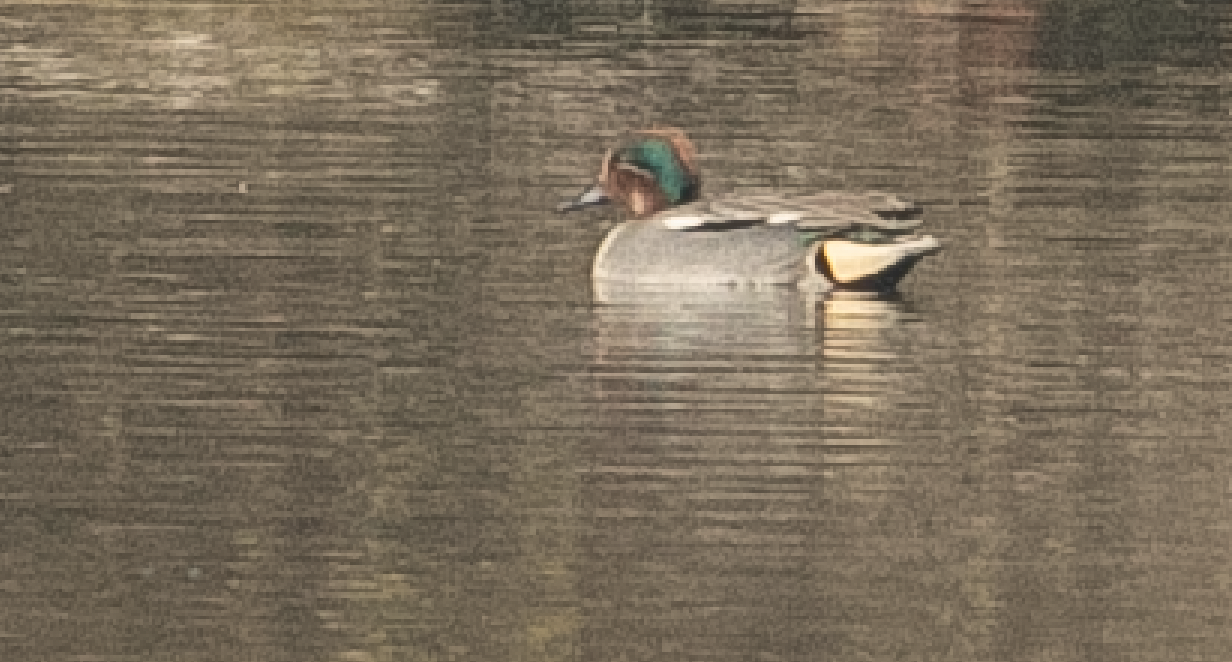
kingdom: Animalia
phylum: Chordata
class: Aves
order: Anseriformes
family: Anatidae
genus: Anas
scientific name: Anas crecca
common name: Eurasian teal
